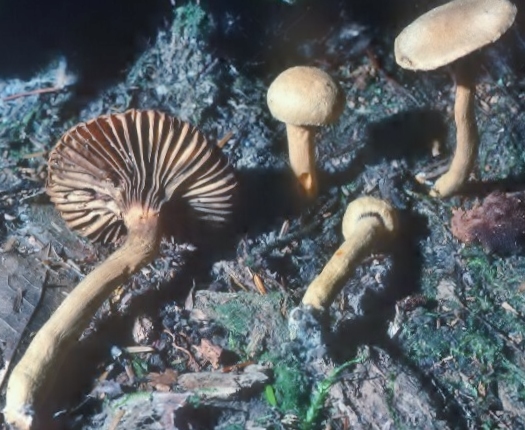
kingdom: Fungi
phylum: Basidiomycota
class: Agaricomycetes
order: Boletales
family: Gomphidiaceae
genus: Chroogomphus
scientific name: Chroogomphus tomentosus
